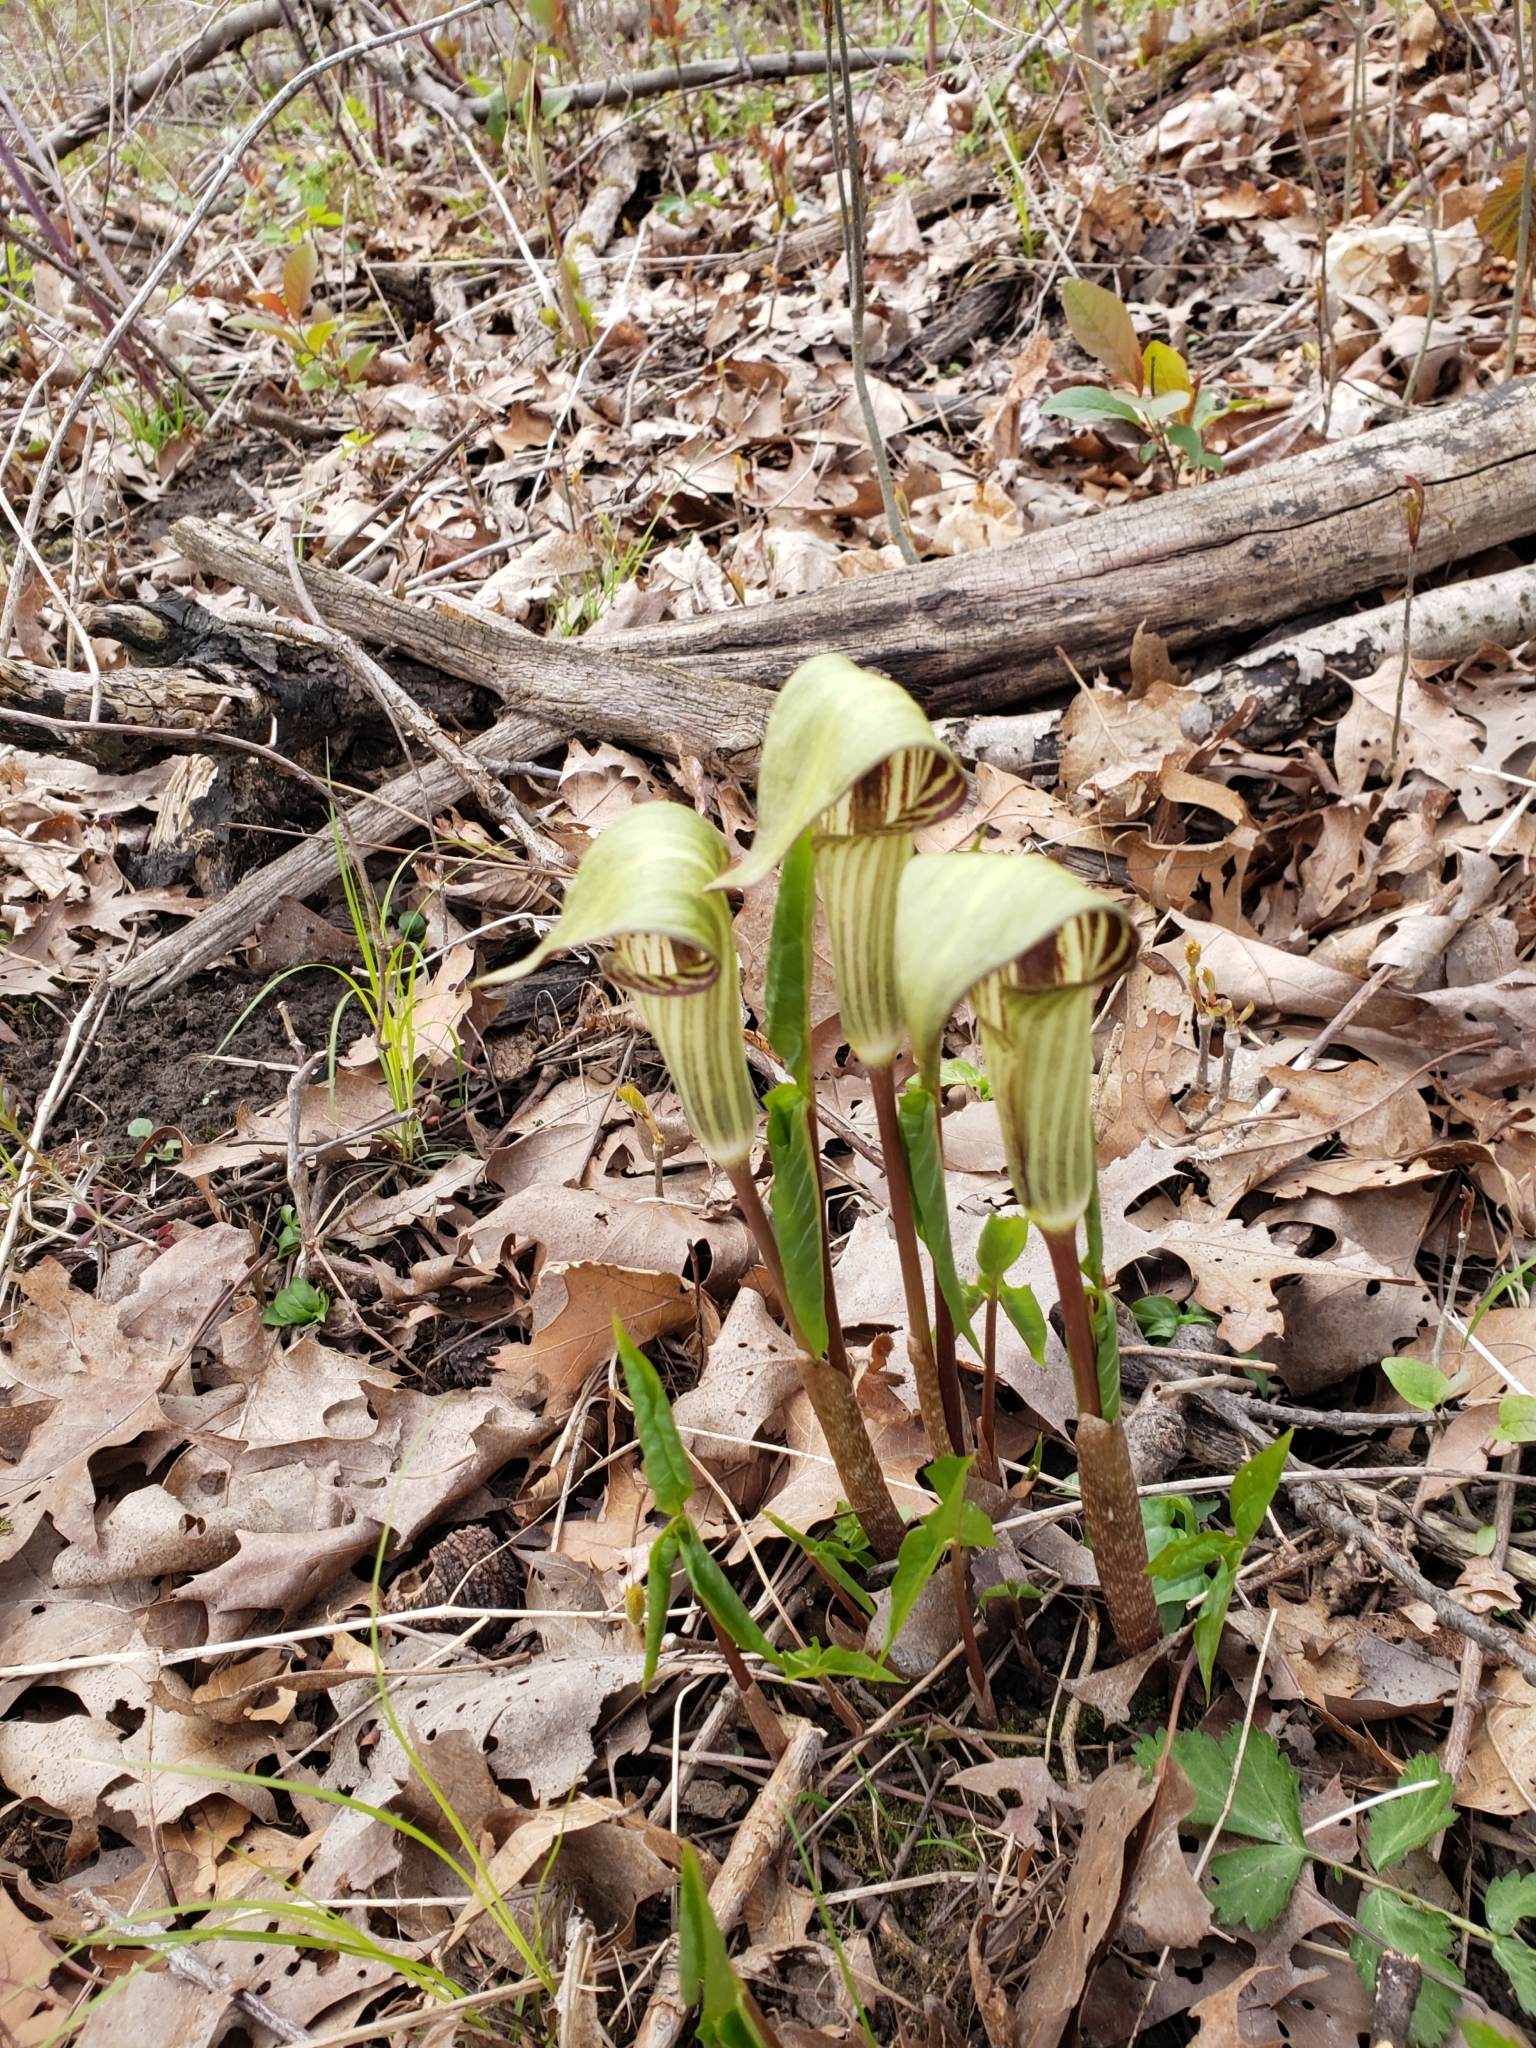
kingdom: Plantae
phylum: Tracheophyta
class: Liliopsida
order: Alismatales
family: Araceae
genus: Arisaema
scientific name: Arisaema triphyllum
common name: Jack-in-the-pulpit
